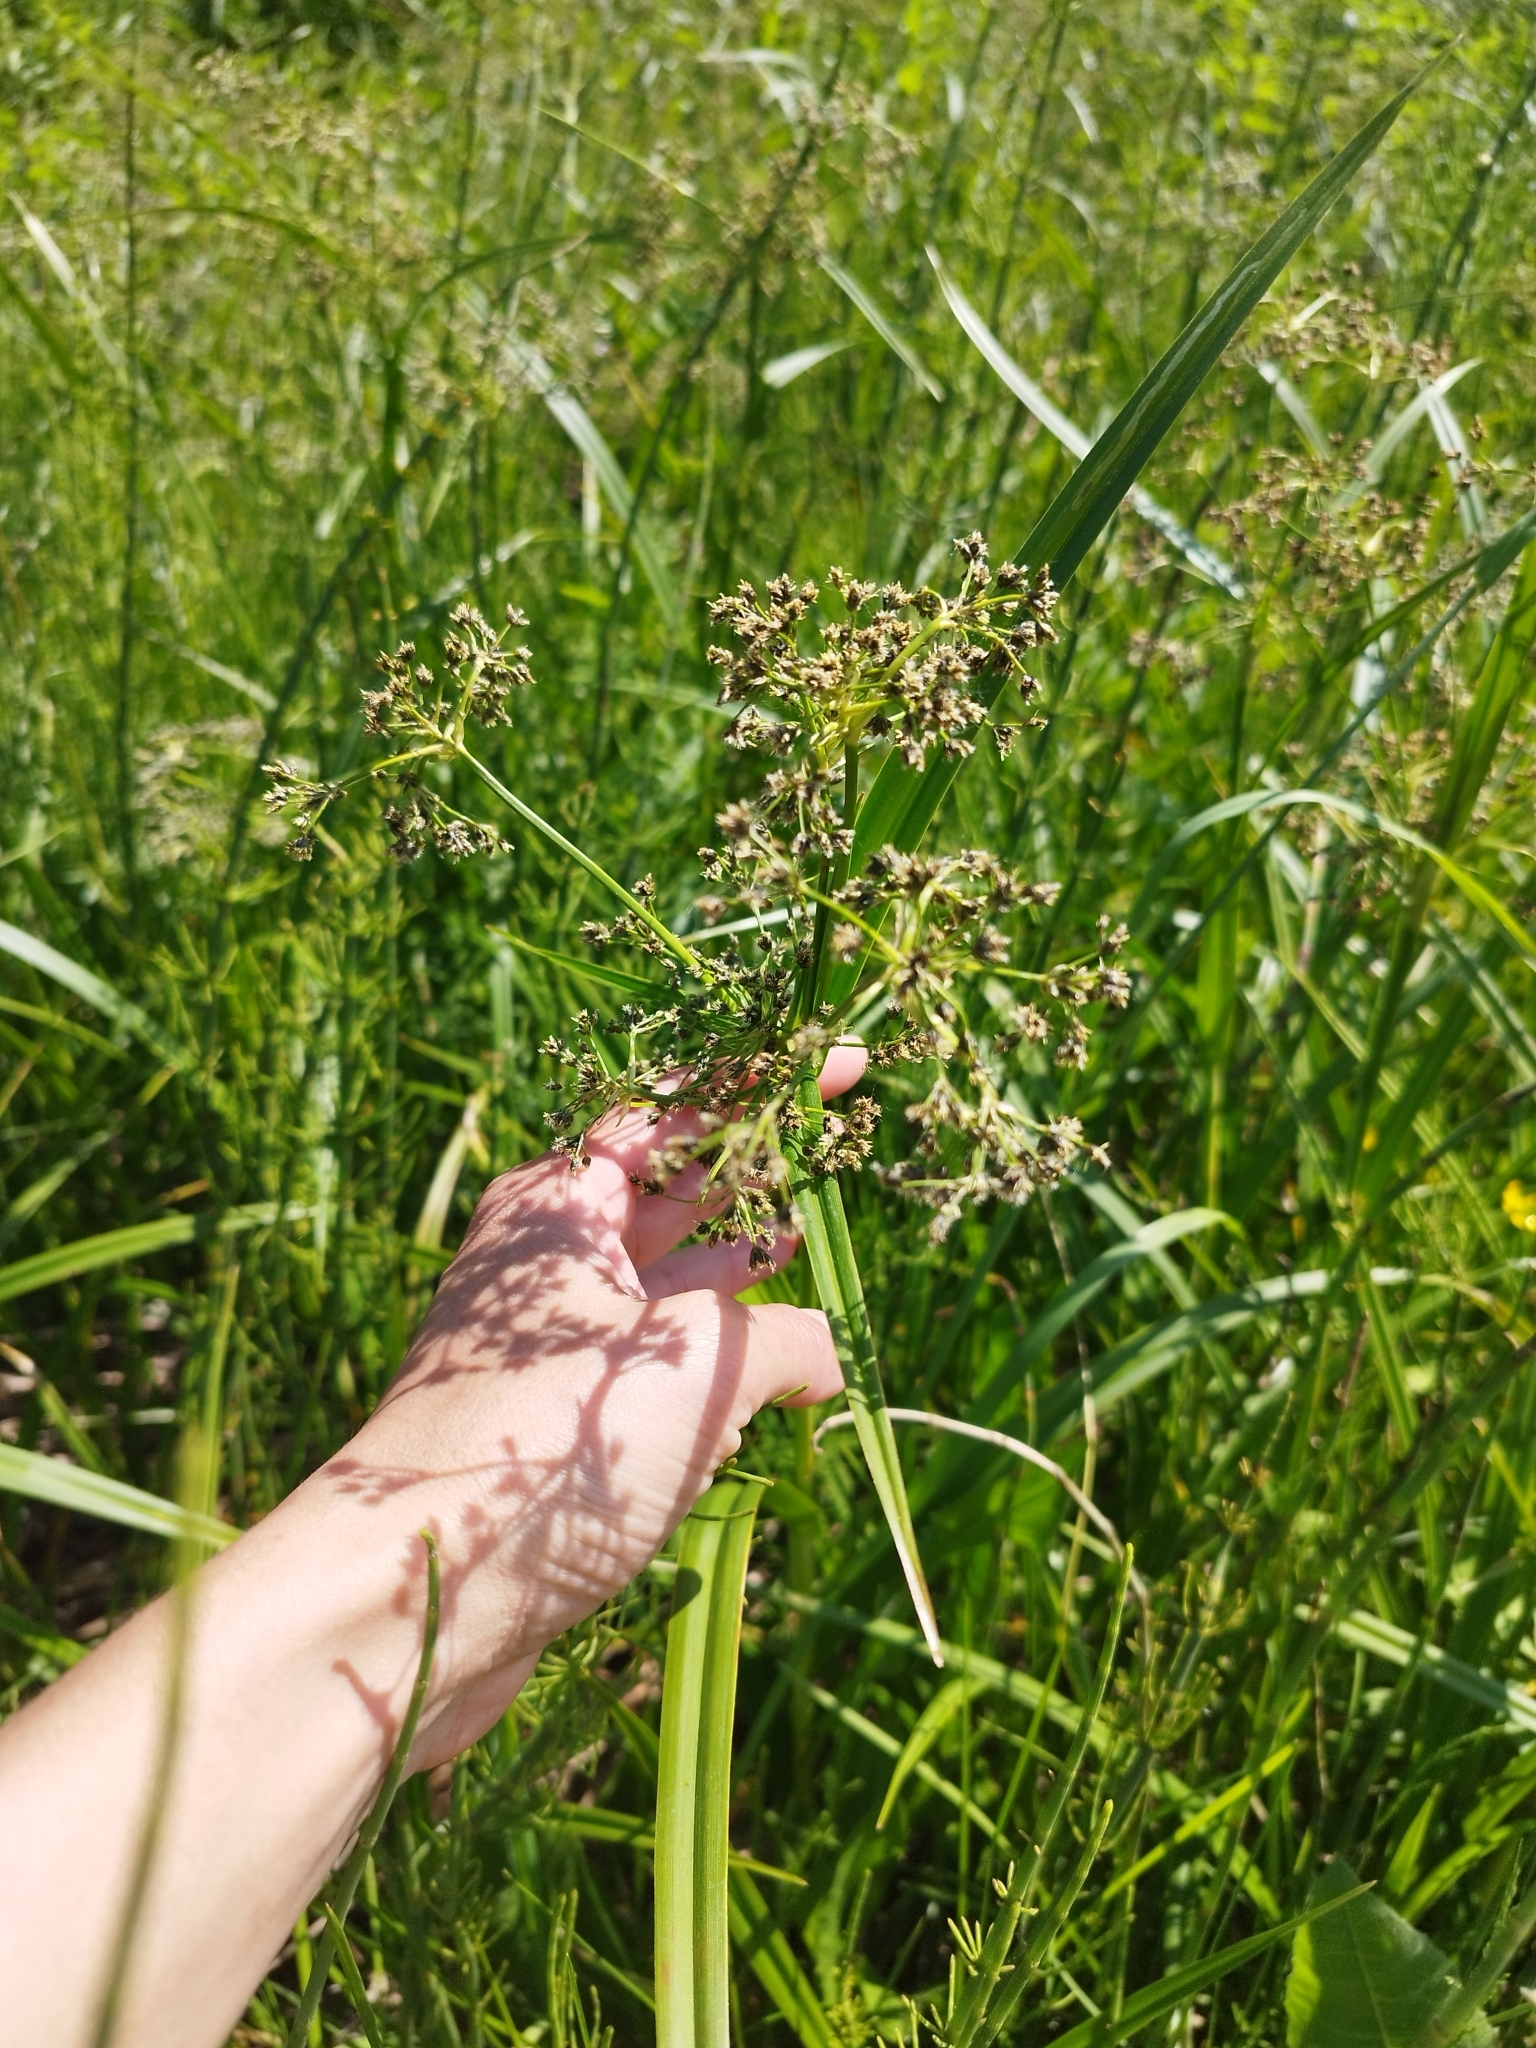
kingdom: Plantae
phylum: Tracheophyta
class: Liliopsida
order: Poales
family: Cyperaceae
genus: Scirpus
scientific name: Scirpus sylvaticus
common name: Wood club-rush
